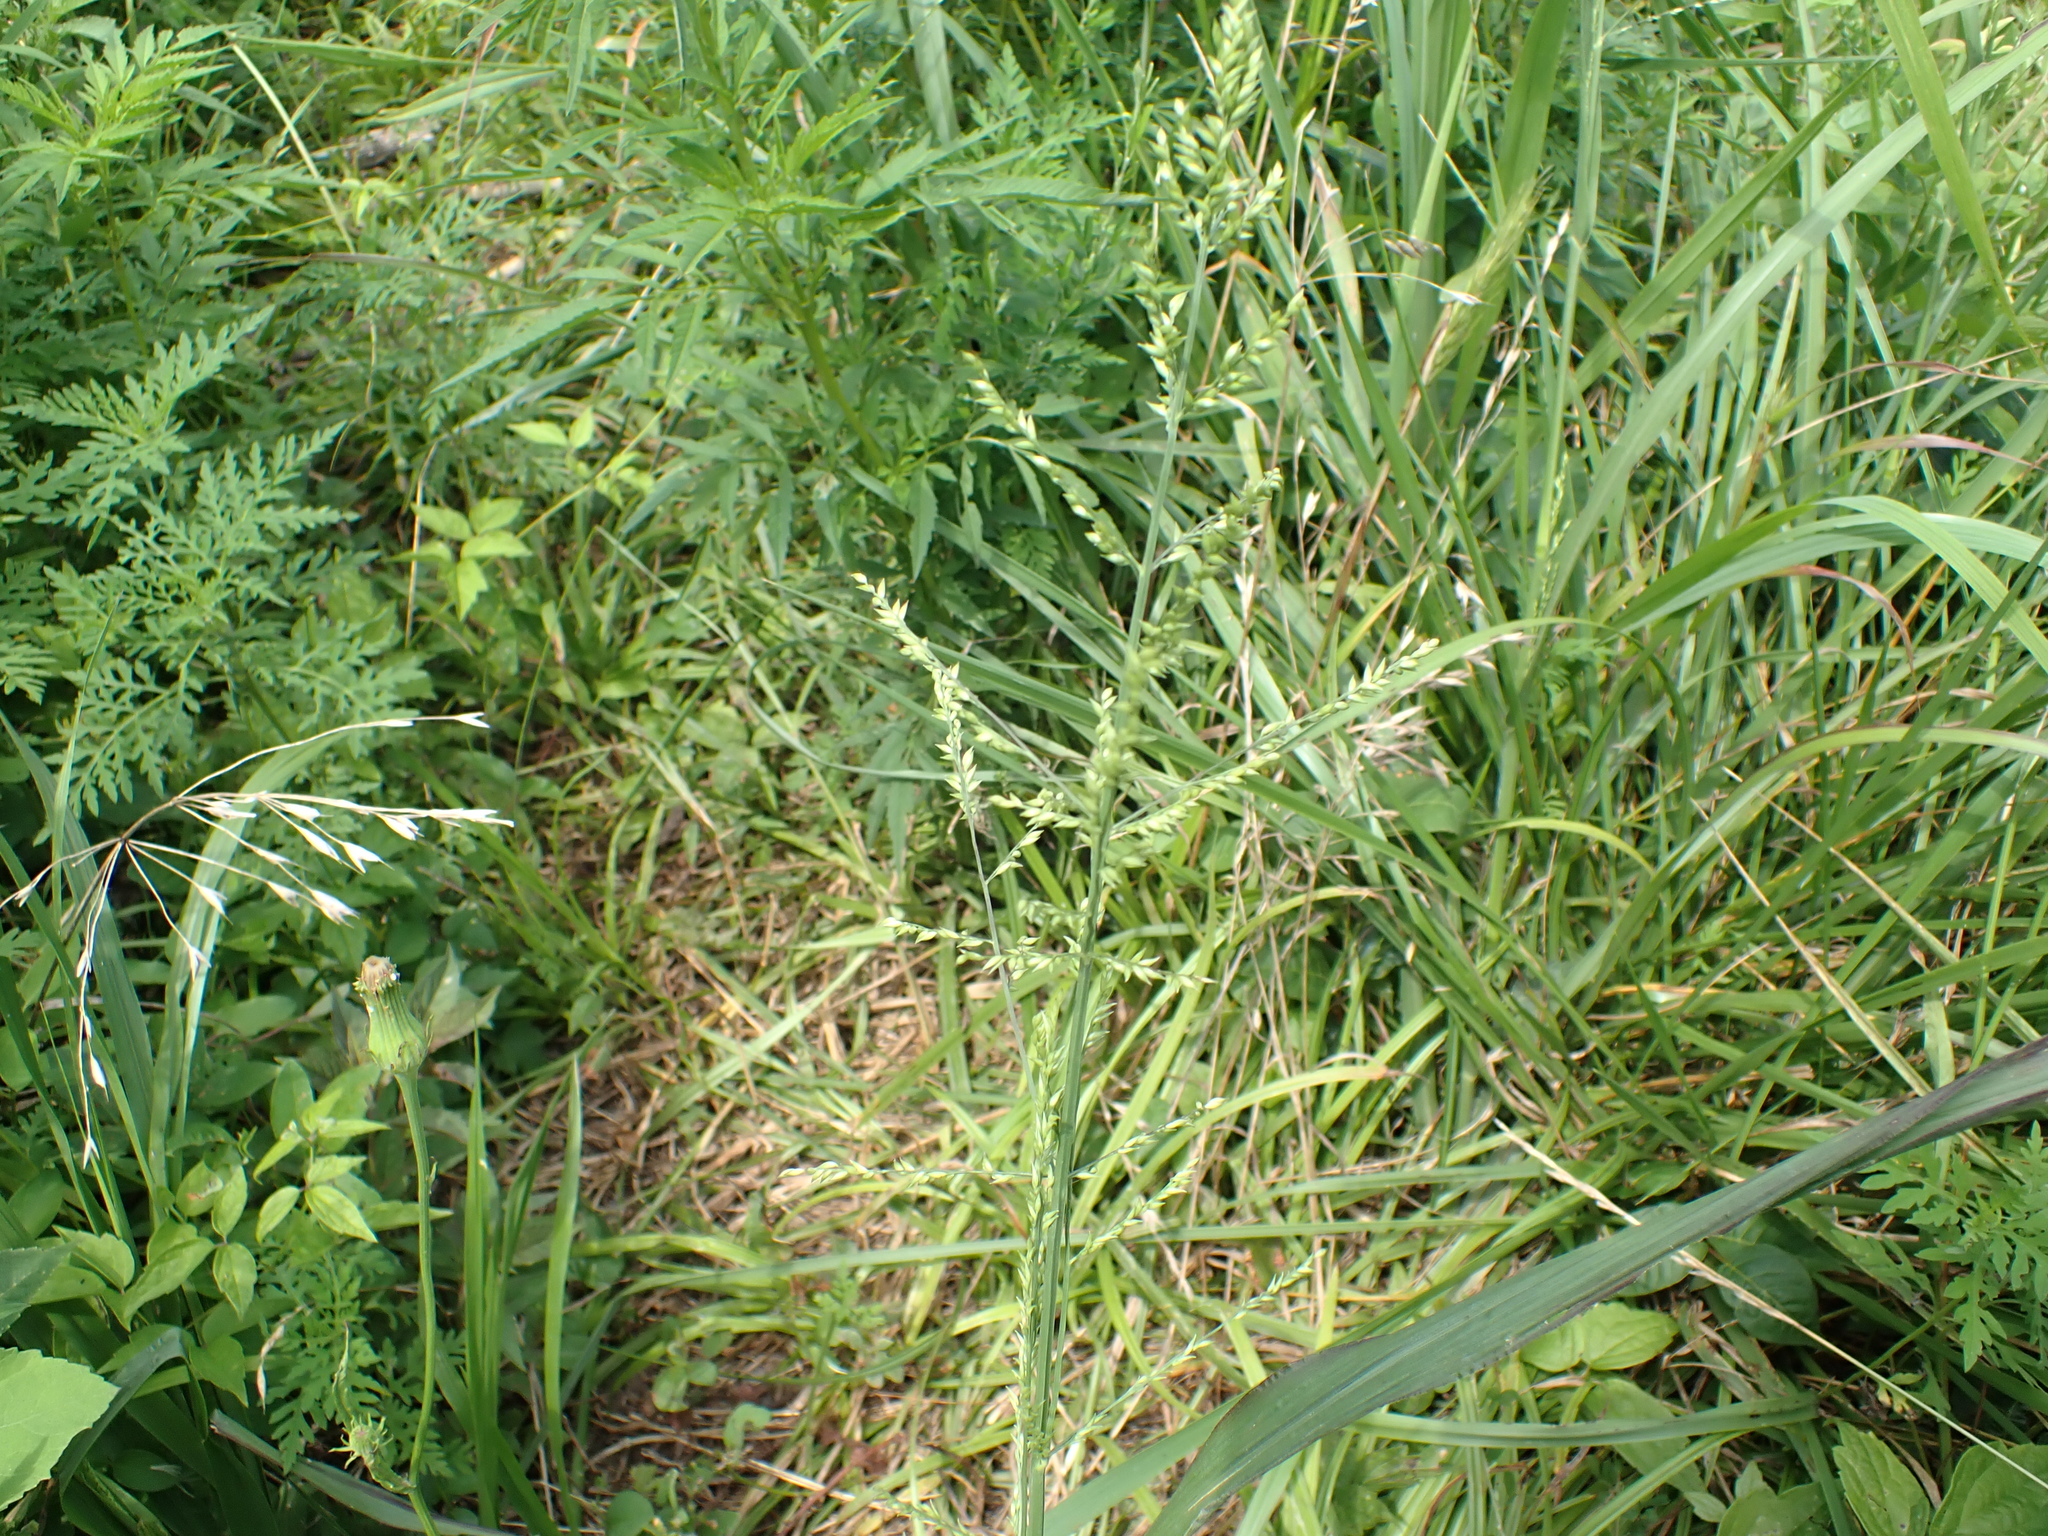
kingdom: Plantae
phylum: Tracheophyta
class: Liliopsida
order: Poales
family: Poaceae
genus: Coleataenia
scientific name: Coleataenia anceps
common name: Beaked panic grass
